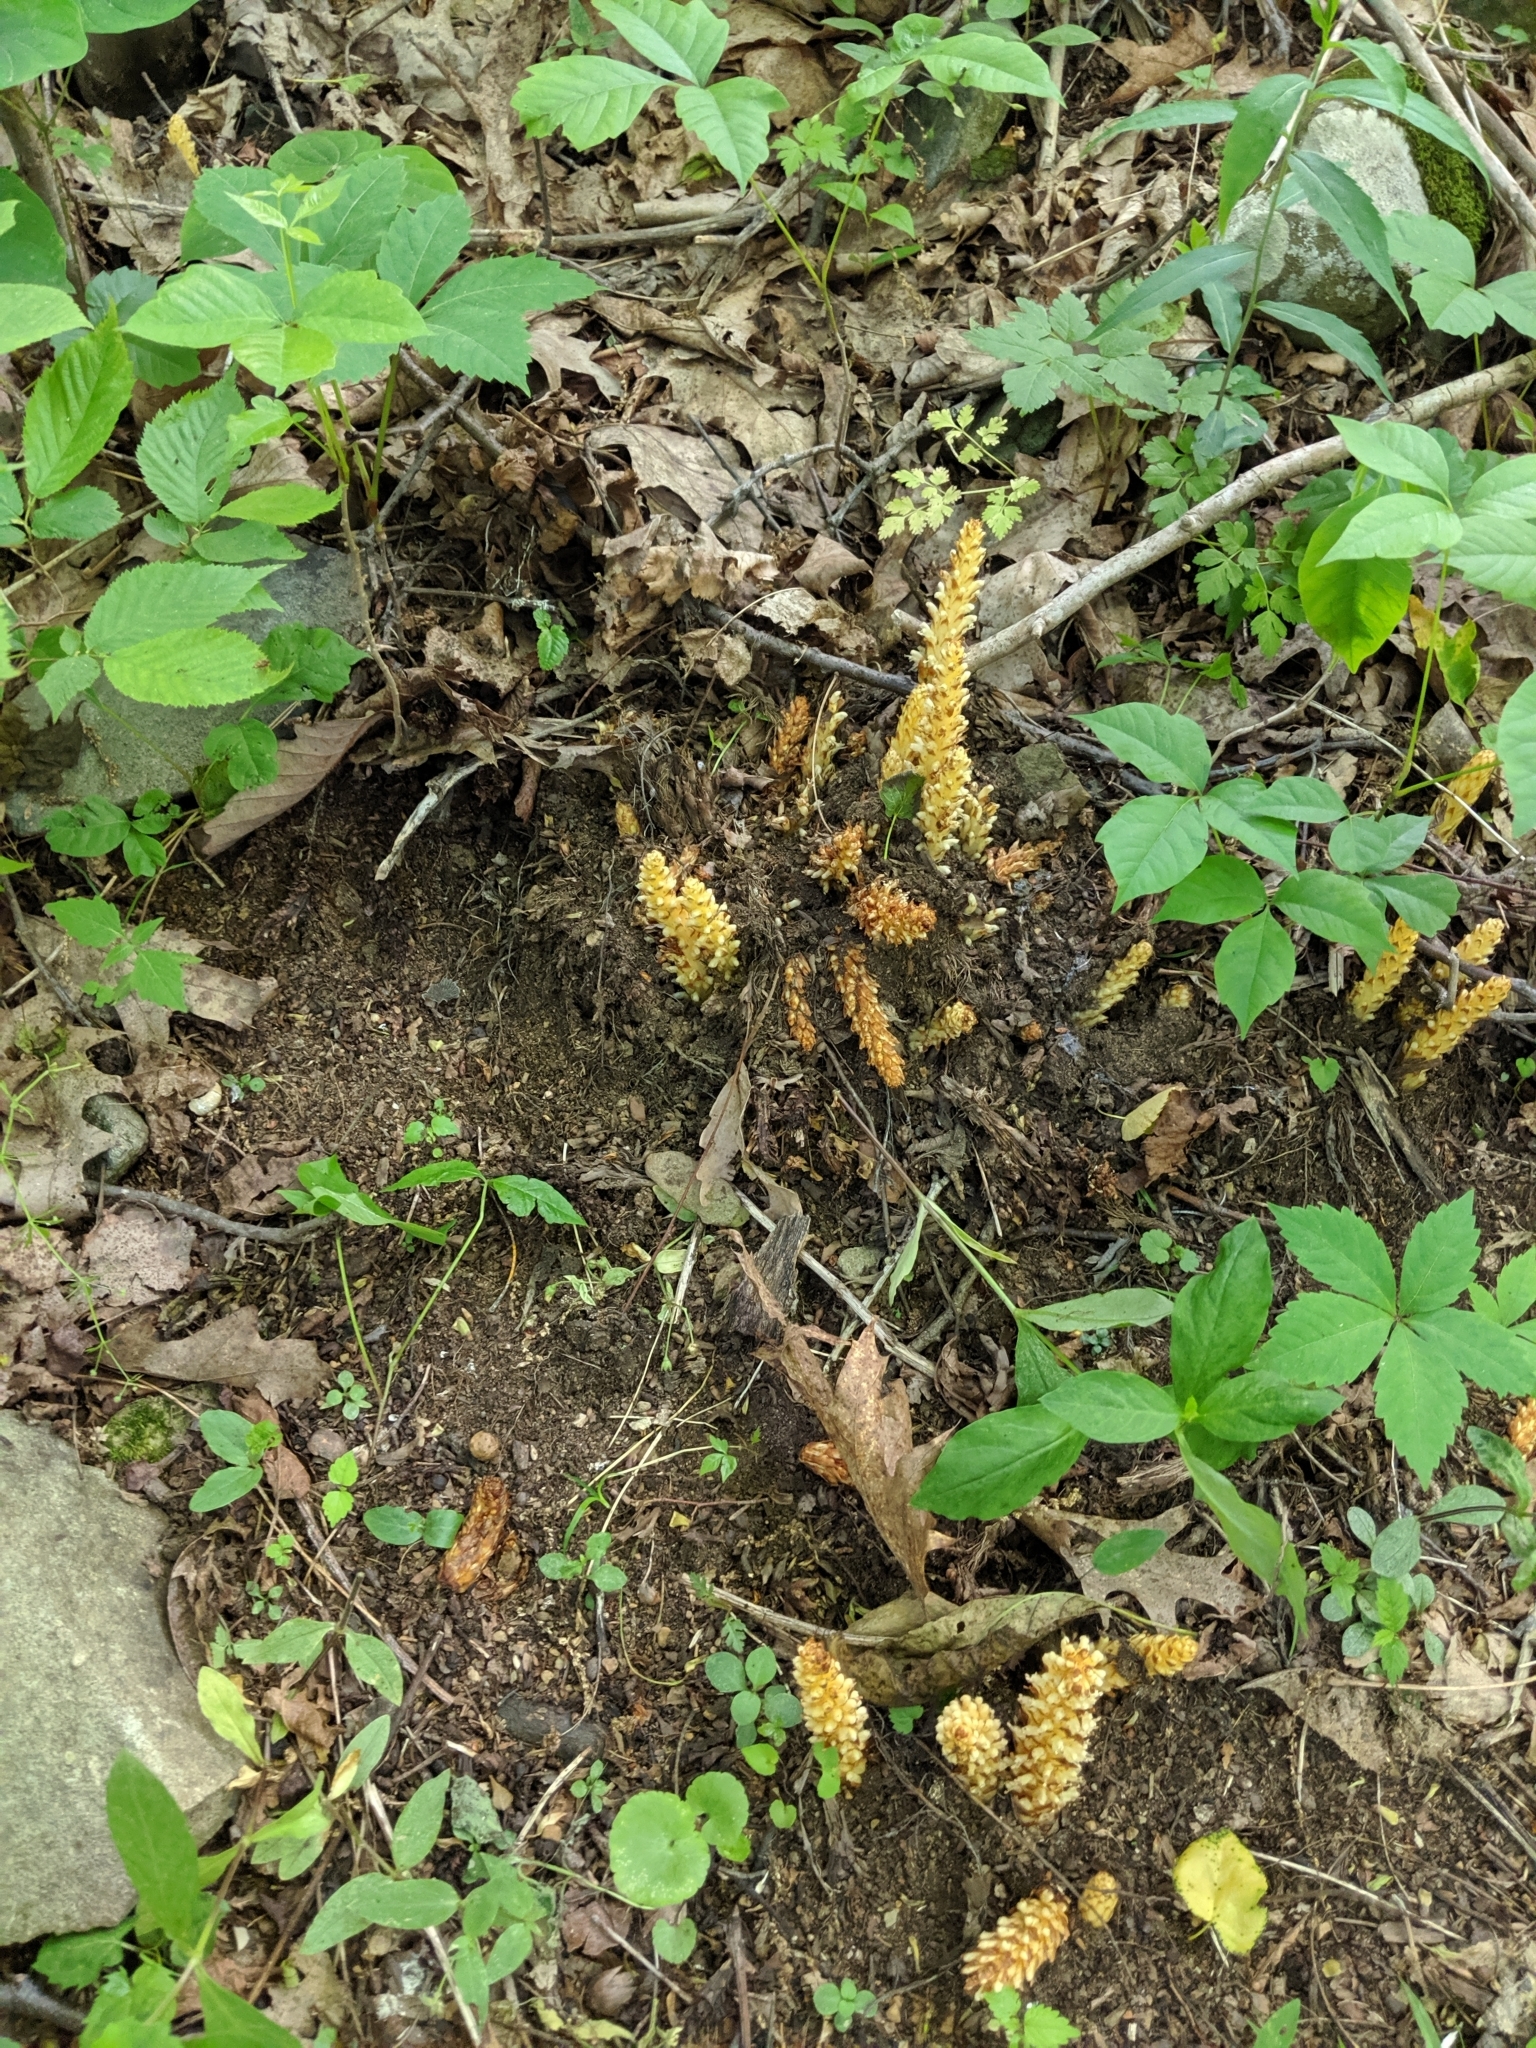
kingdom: Plantae
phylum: Tracheophyta
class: Magnoliopsida
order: Lamiales
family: Orobanchaceae
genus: Conopholis
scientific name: Conopholis americana
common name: American cancer-root
